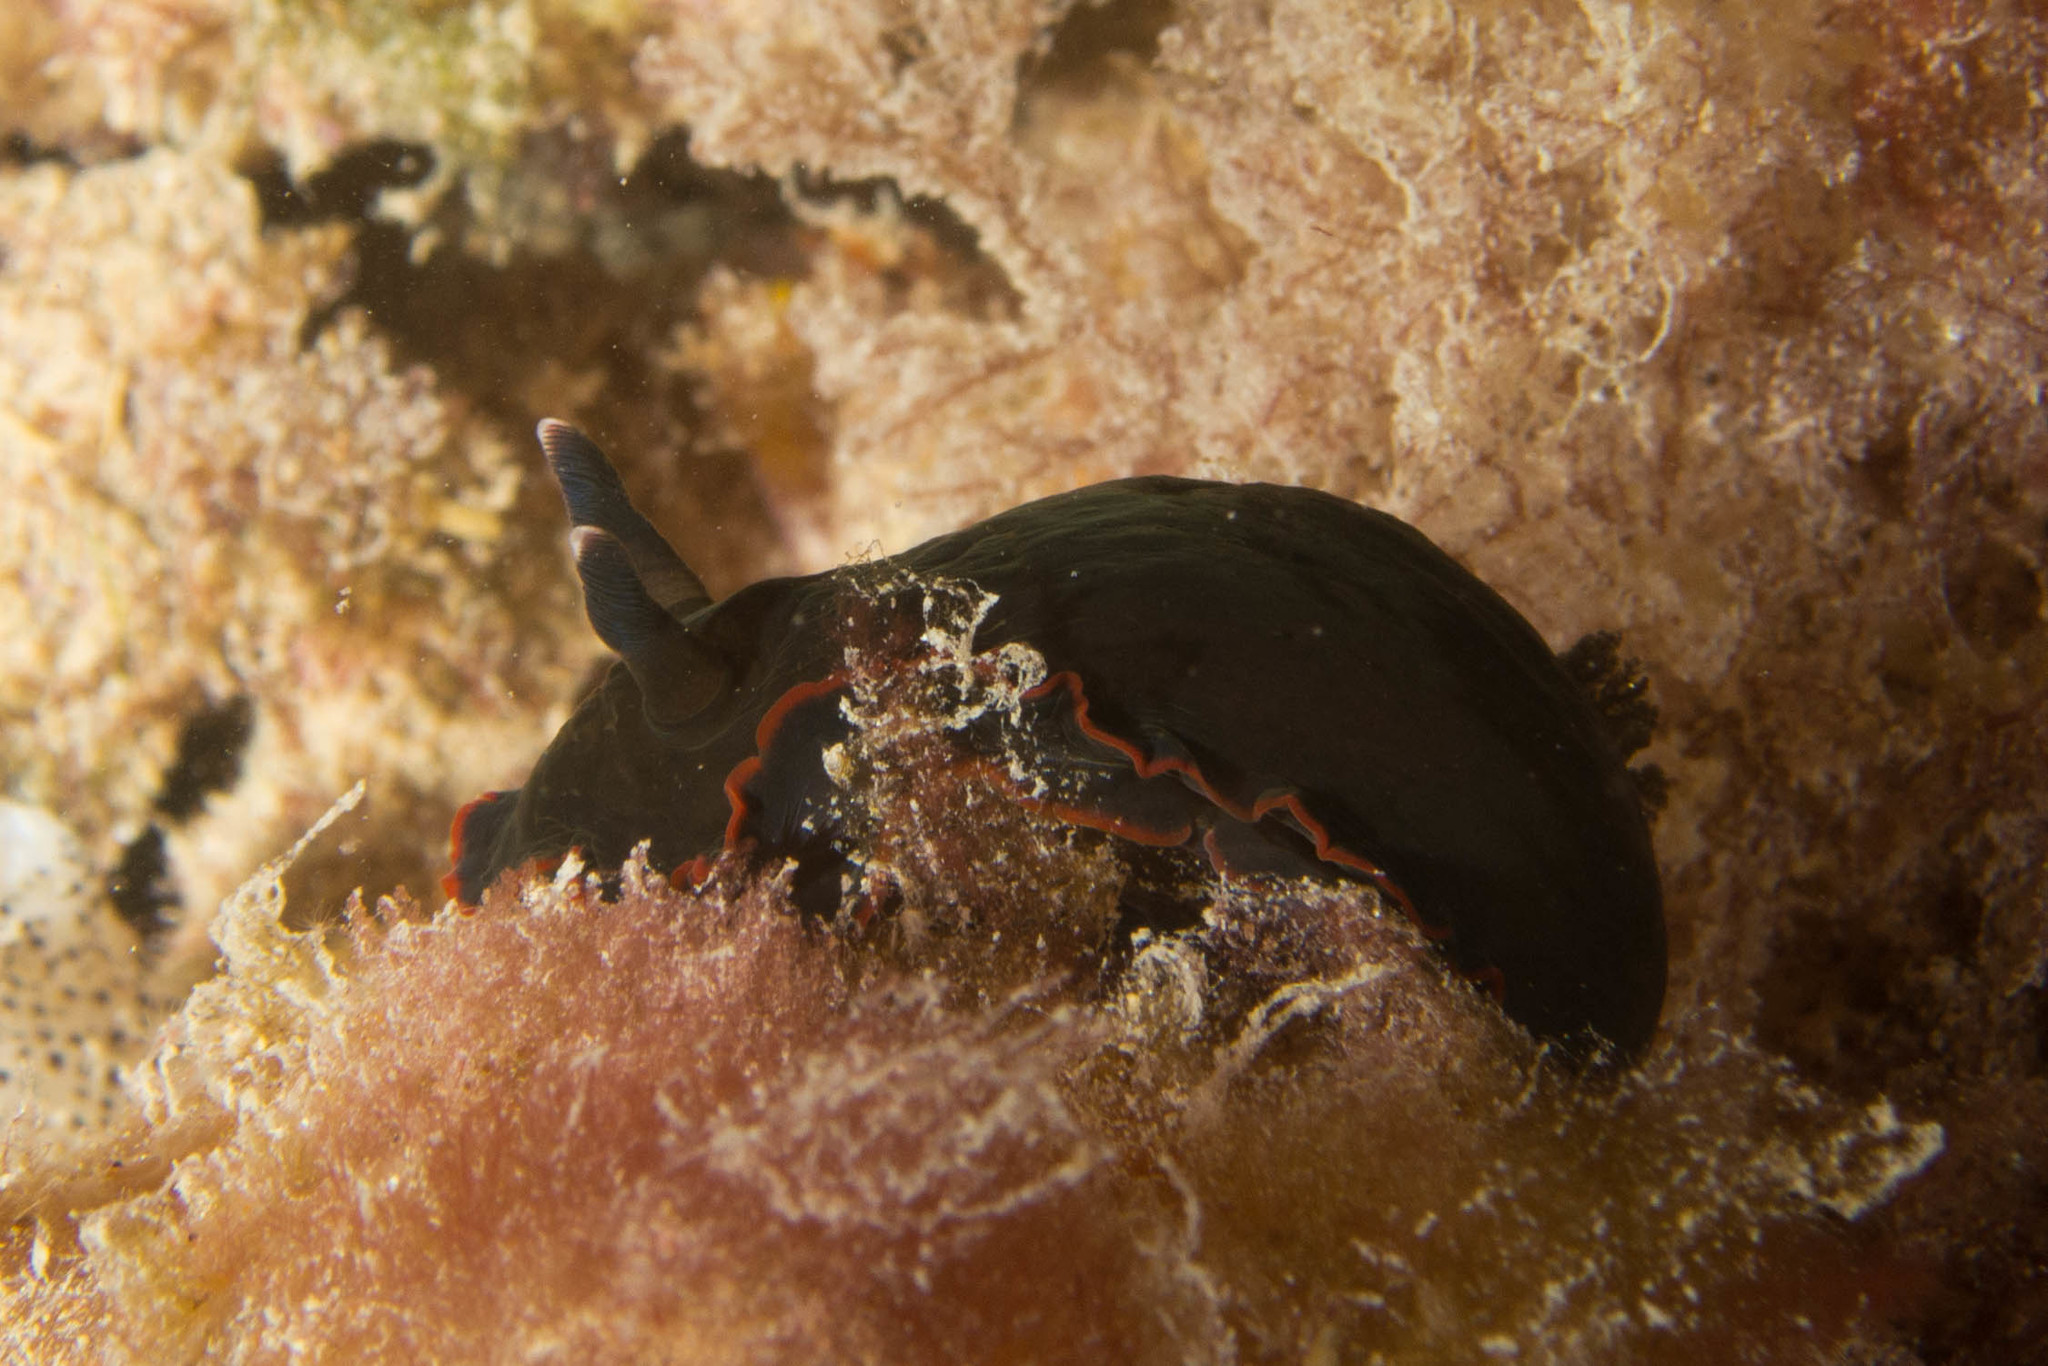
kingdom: Animalia
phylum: Mollusca
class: Gastropoda
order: Nudibranchia
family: Dendrodorididae
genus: Dendrodoris
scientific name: Dendrodoris arborescens
